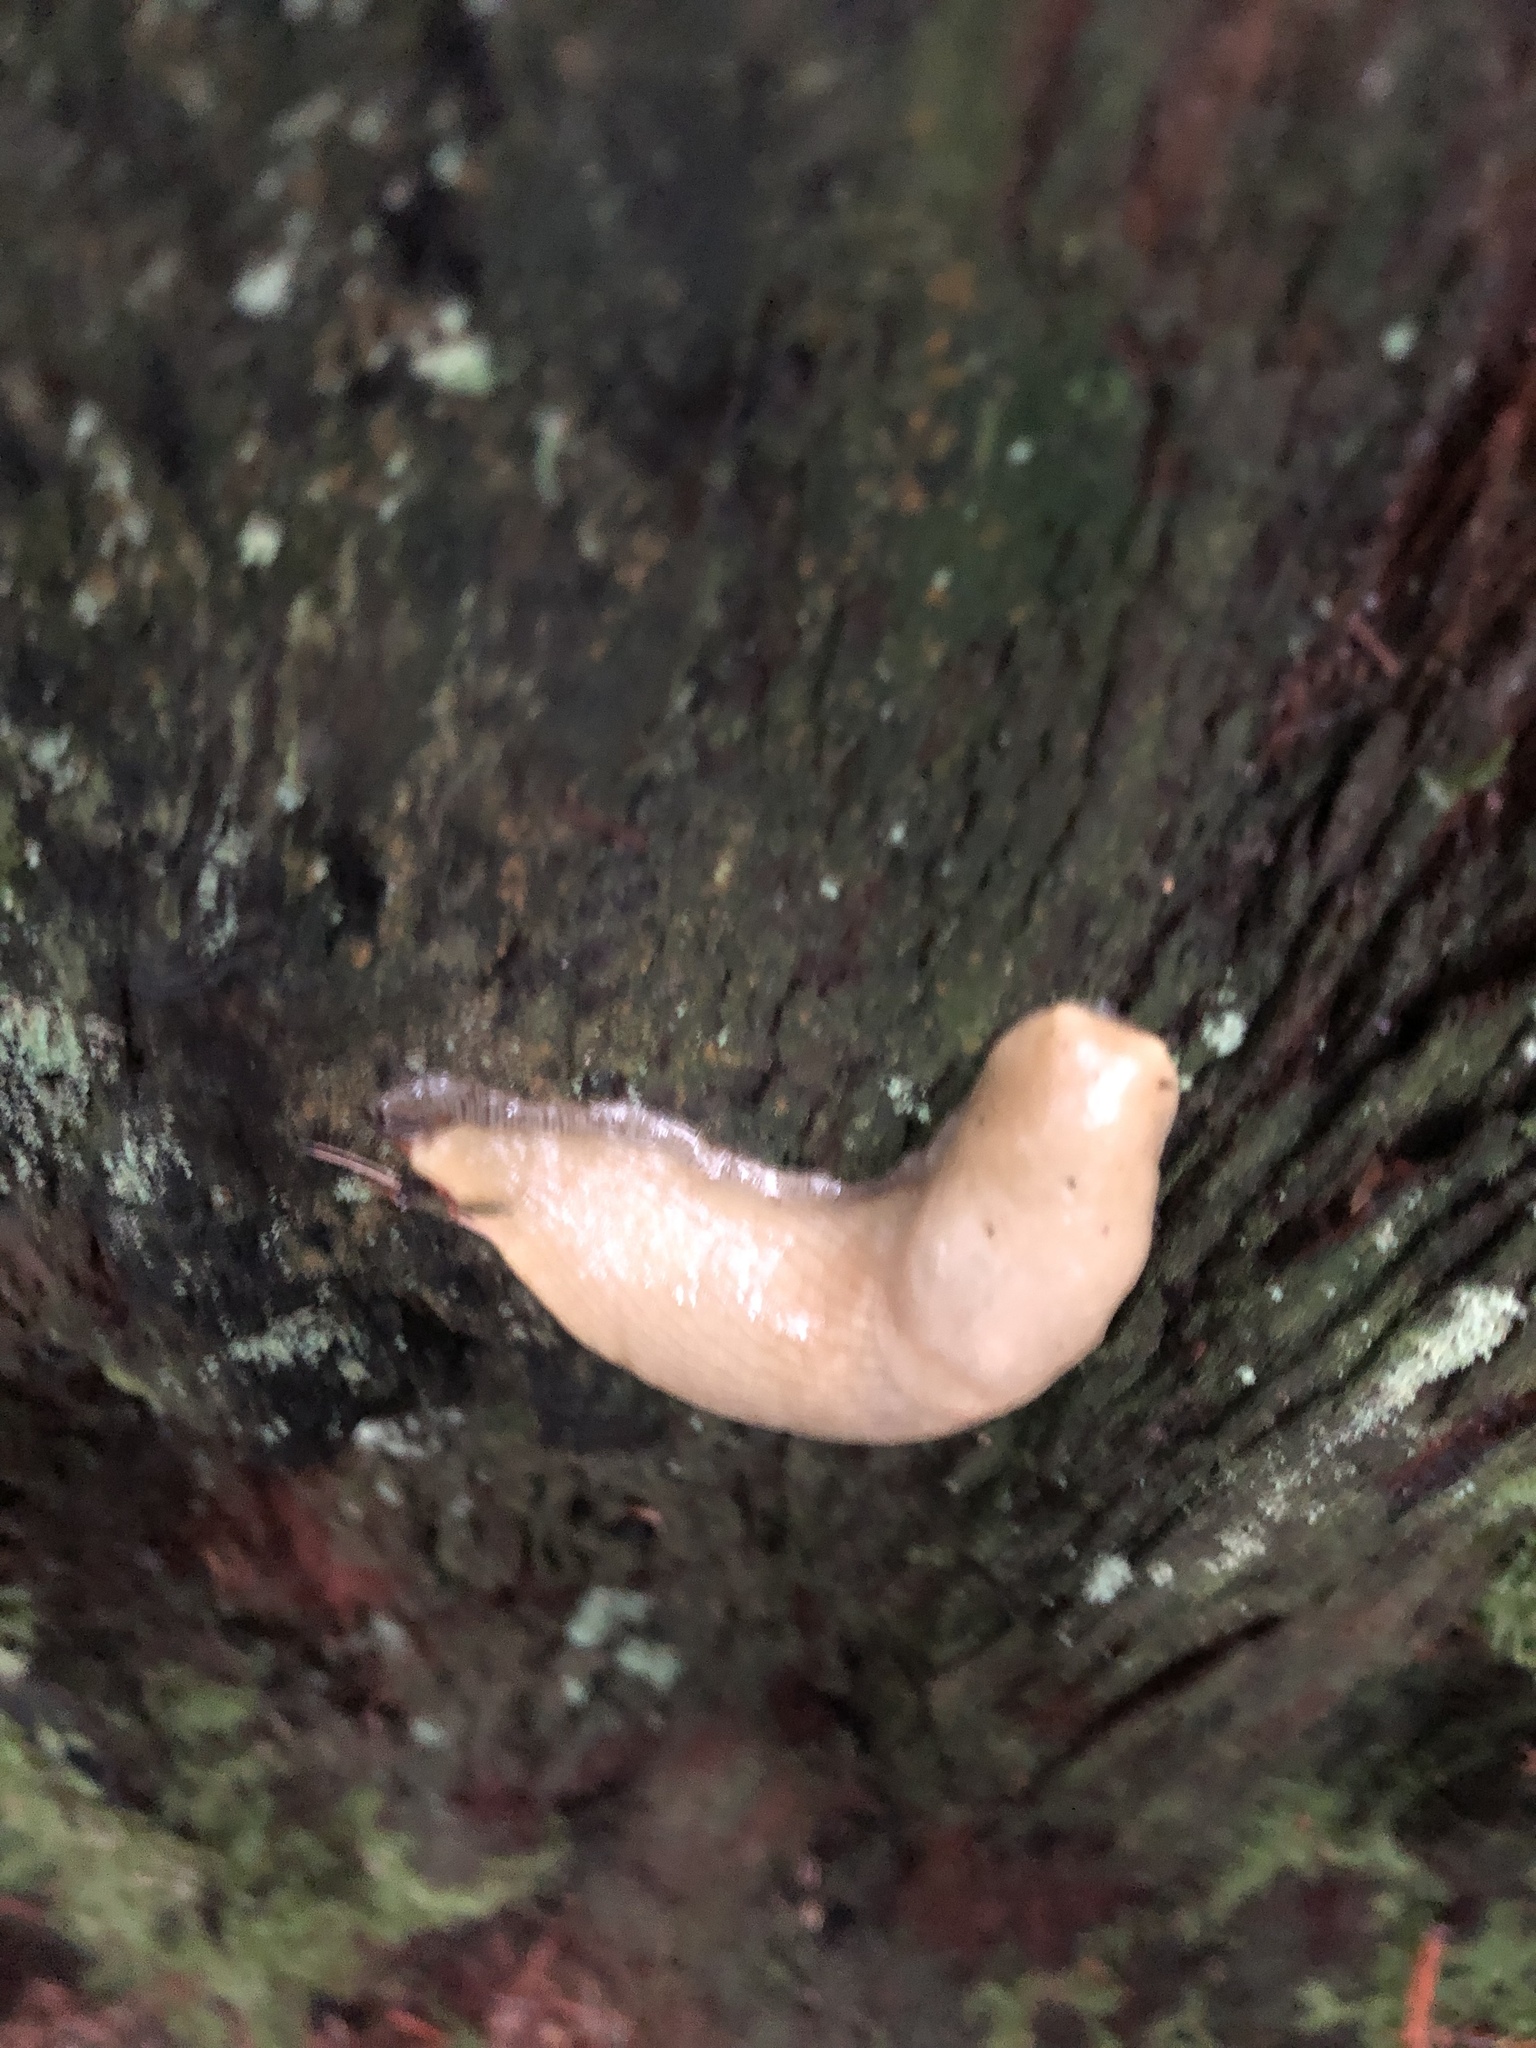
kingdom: Animalia
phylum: Mollusca
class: Gastropoda
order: Stylommatophora
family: Ariolimacidae
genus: Ariolimax
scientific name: Ariolimax columbianus
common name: Pacific banana slug
